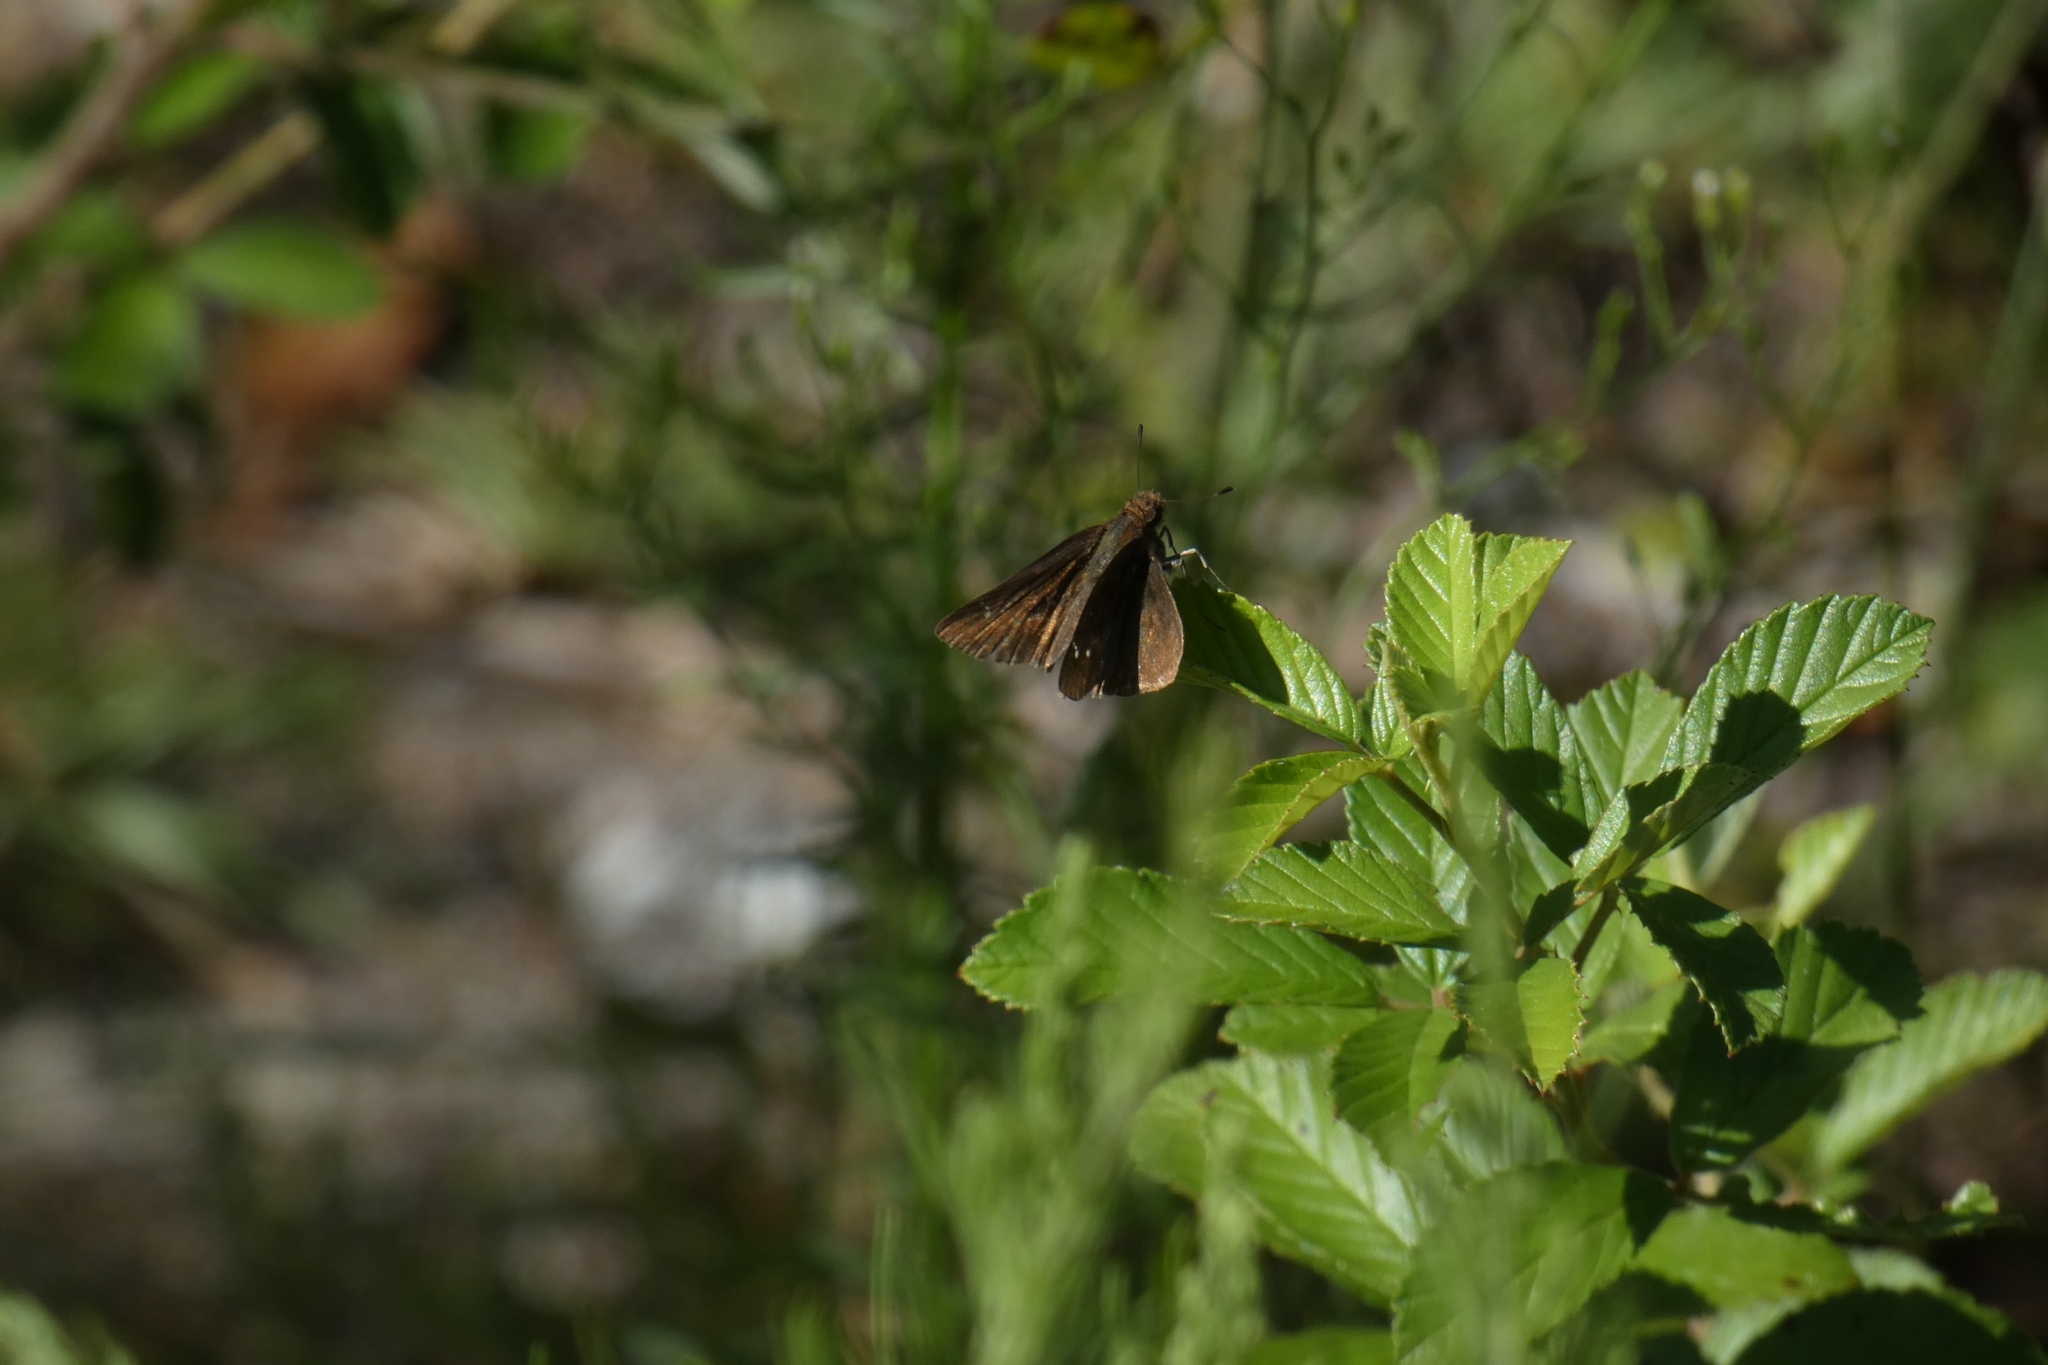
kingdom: Animalia
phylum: Arthropoda
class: Insecta
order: Lepidoptera
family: Hesperiidae
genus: Lerema
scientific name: Lerema accius
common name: Clouded skipper
